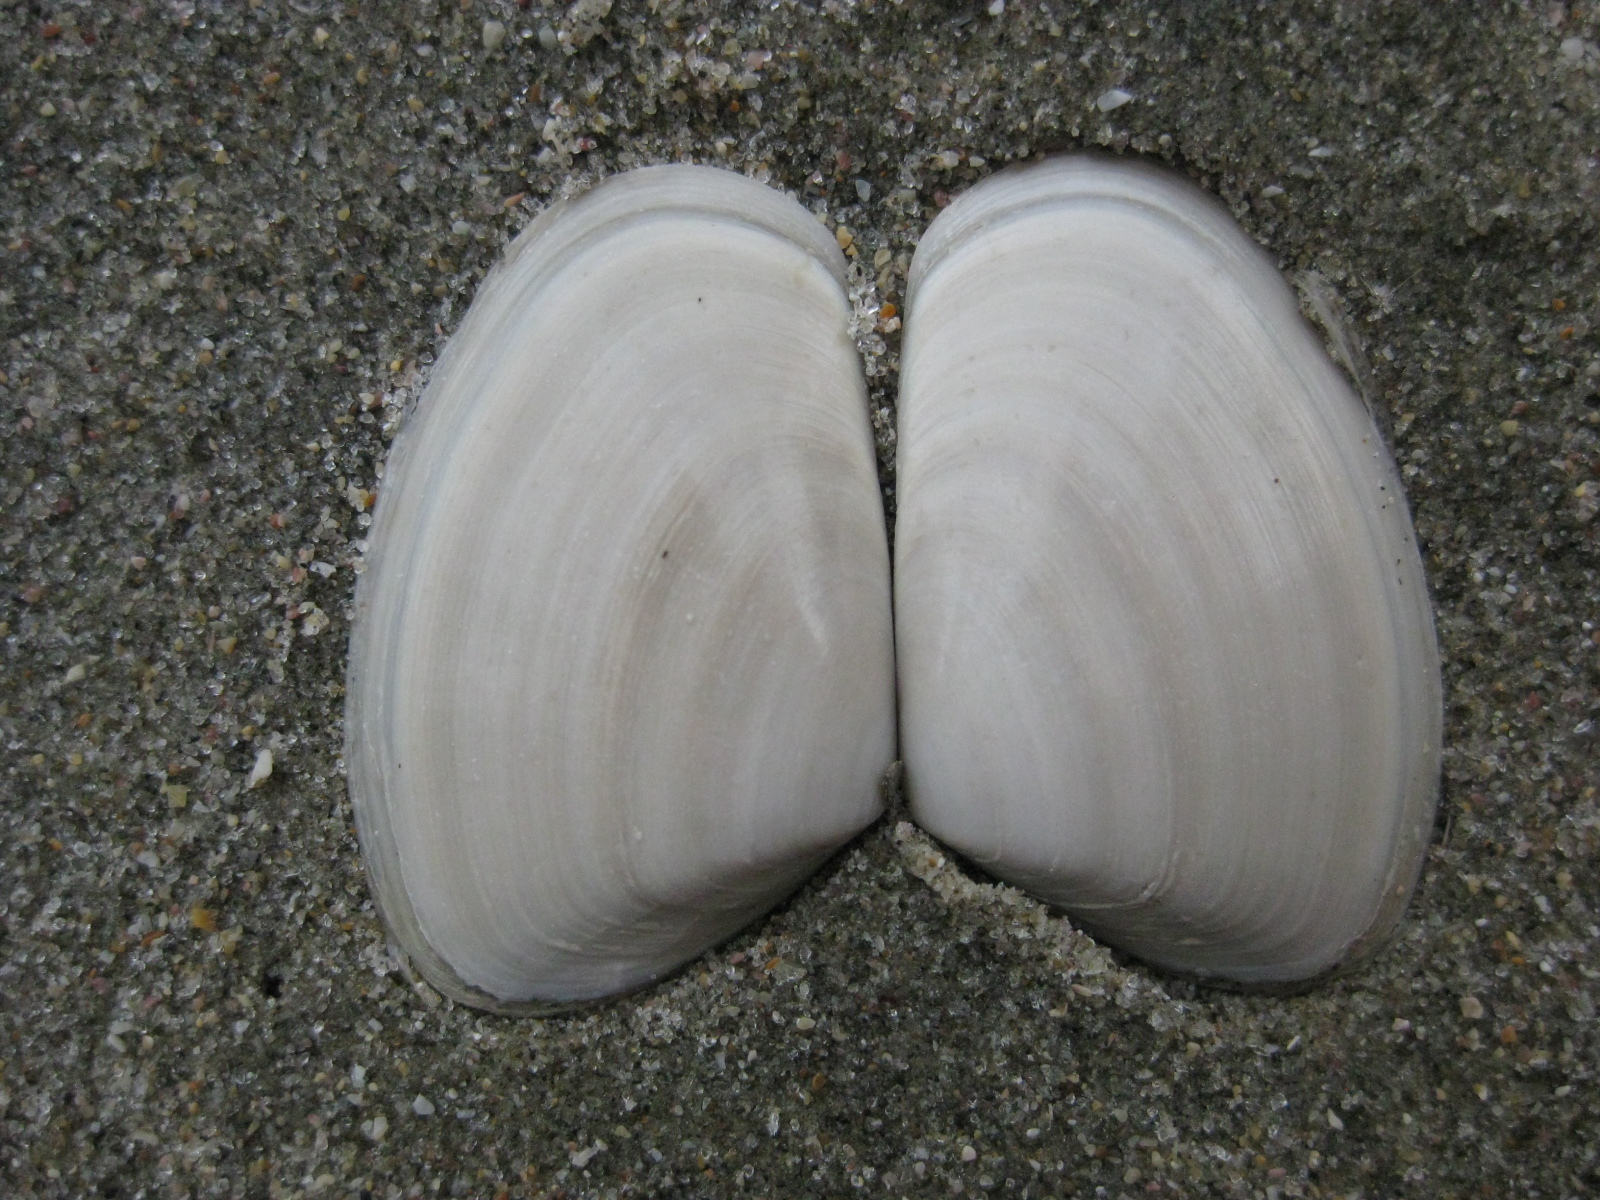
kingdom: Animalia
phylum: Mollusca
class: Bivalvia
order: Venerida
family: Mesodesmatidae
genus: Paphies
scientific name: Paphies subtriangulata
